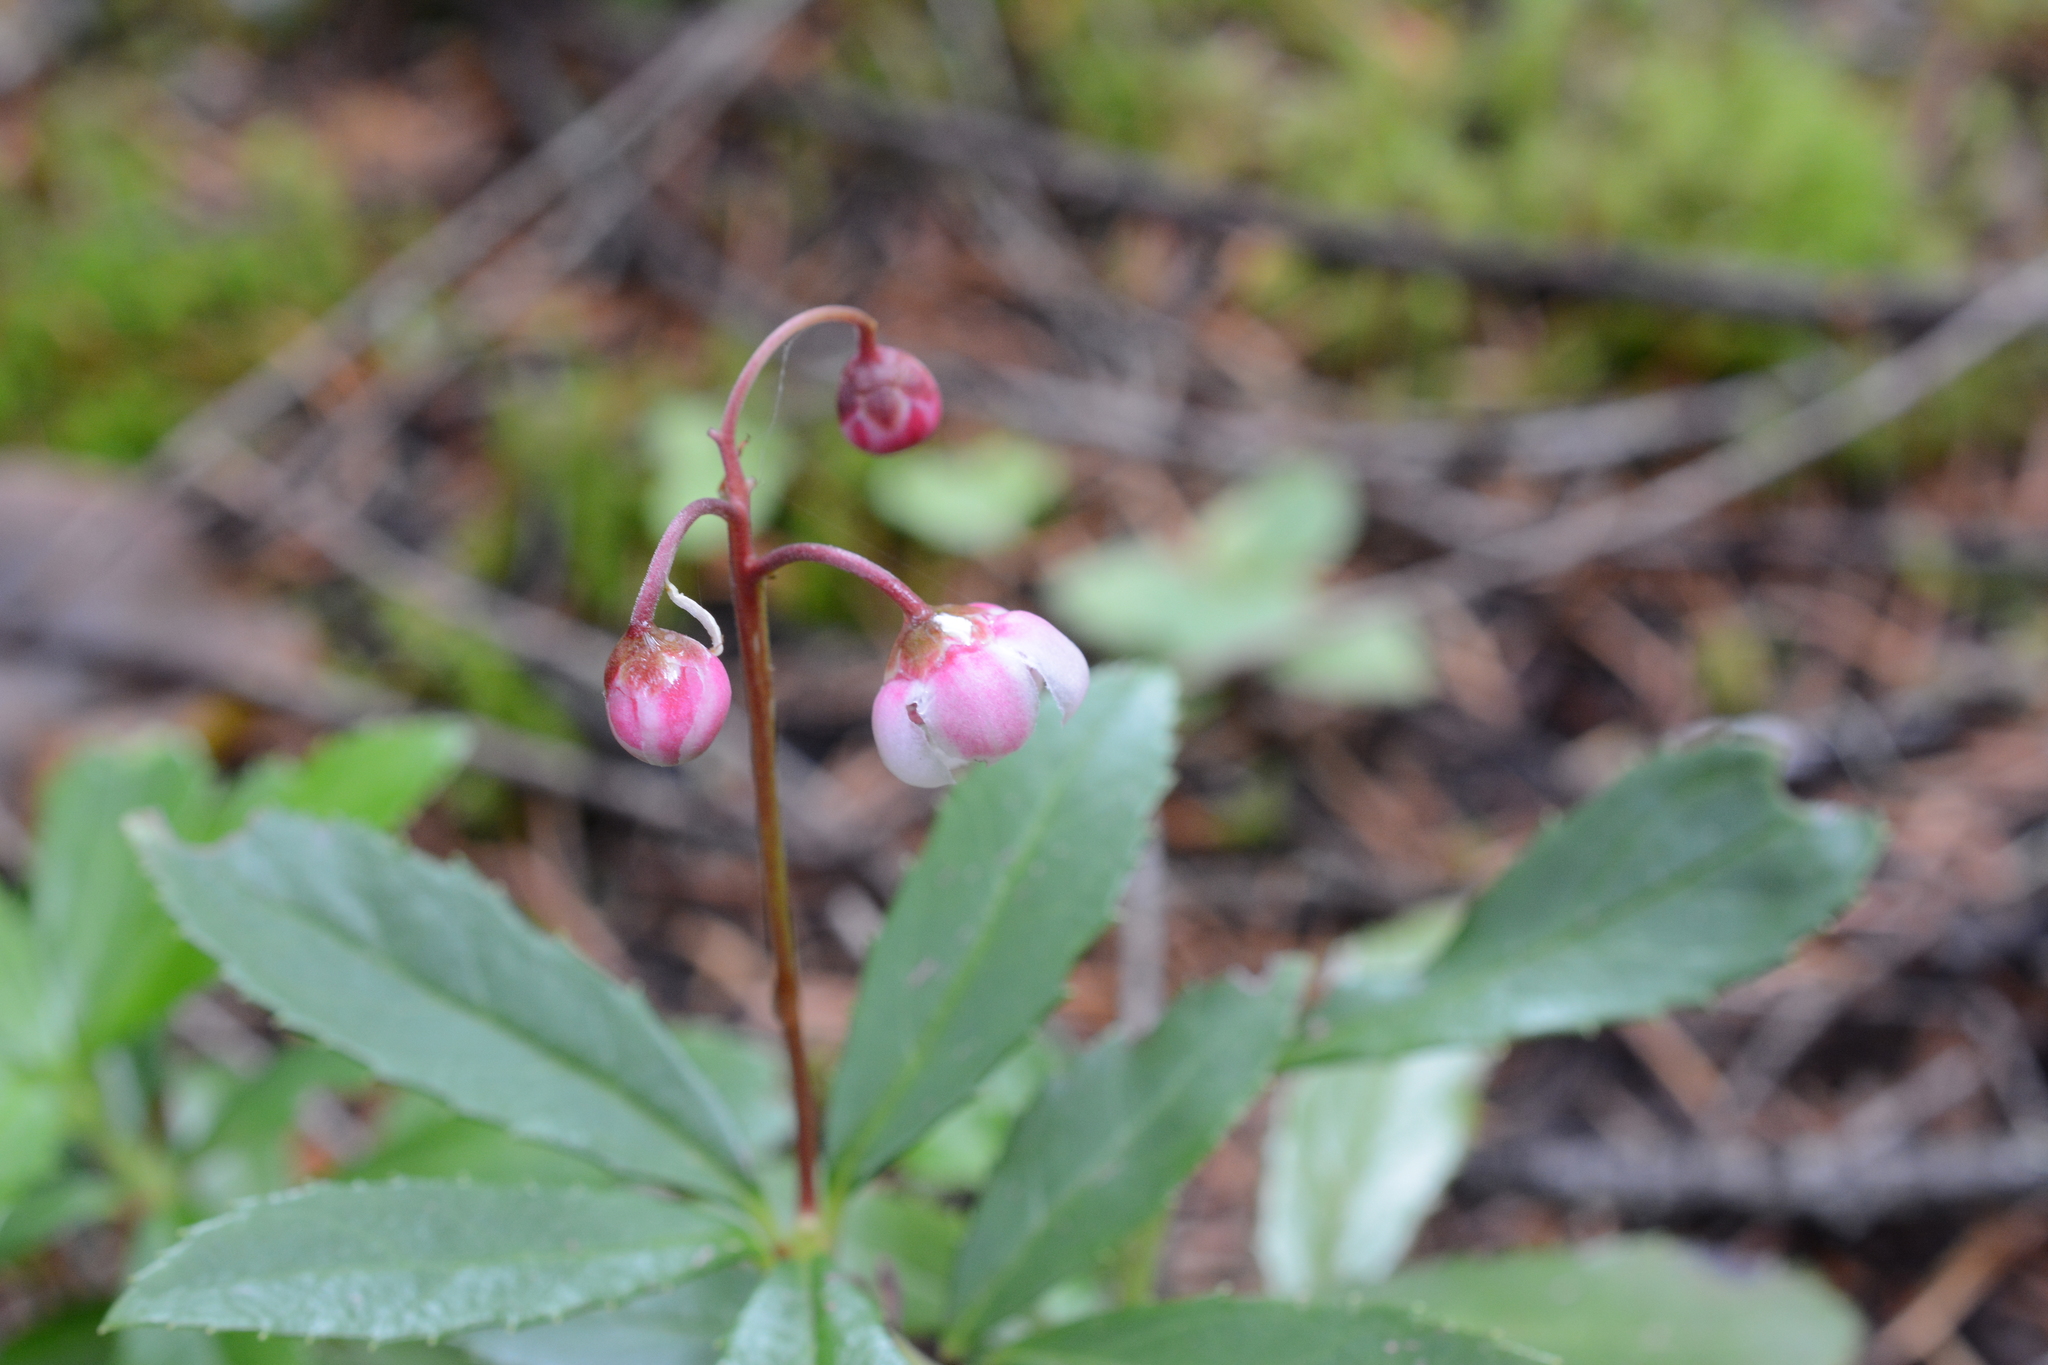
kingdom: Plantae
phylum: Tracheophyta
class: Magnoliopsida
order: Ericales
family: Ericaceae
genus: Chimaphila
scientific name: Chimaphila umbellata
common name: Pipsissewa
